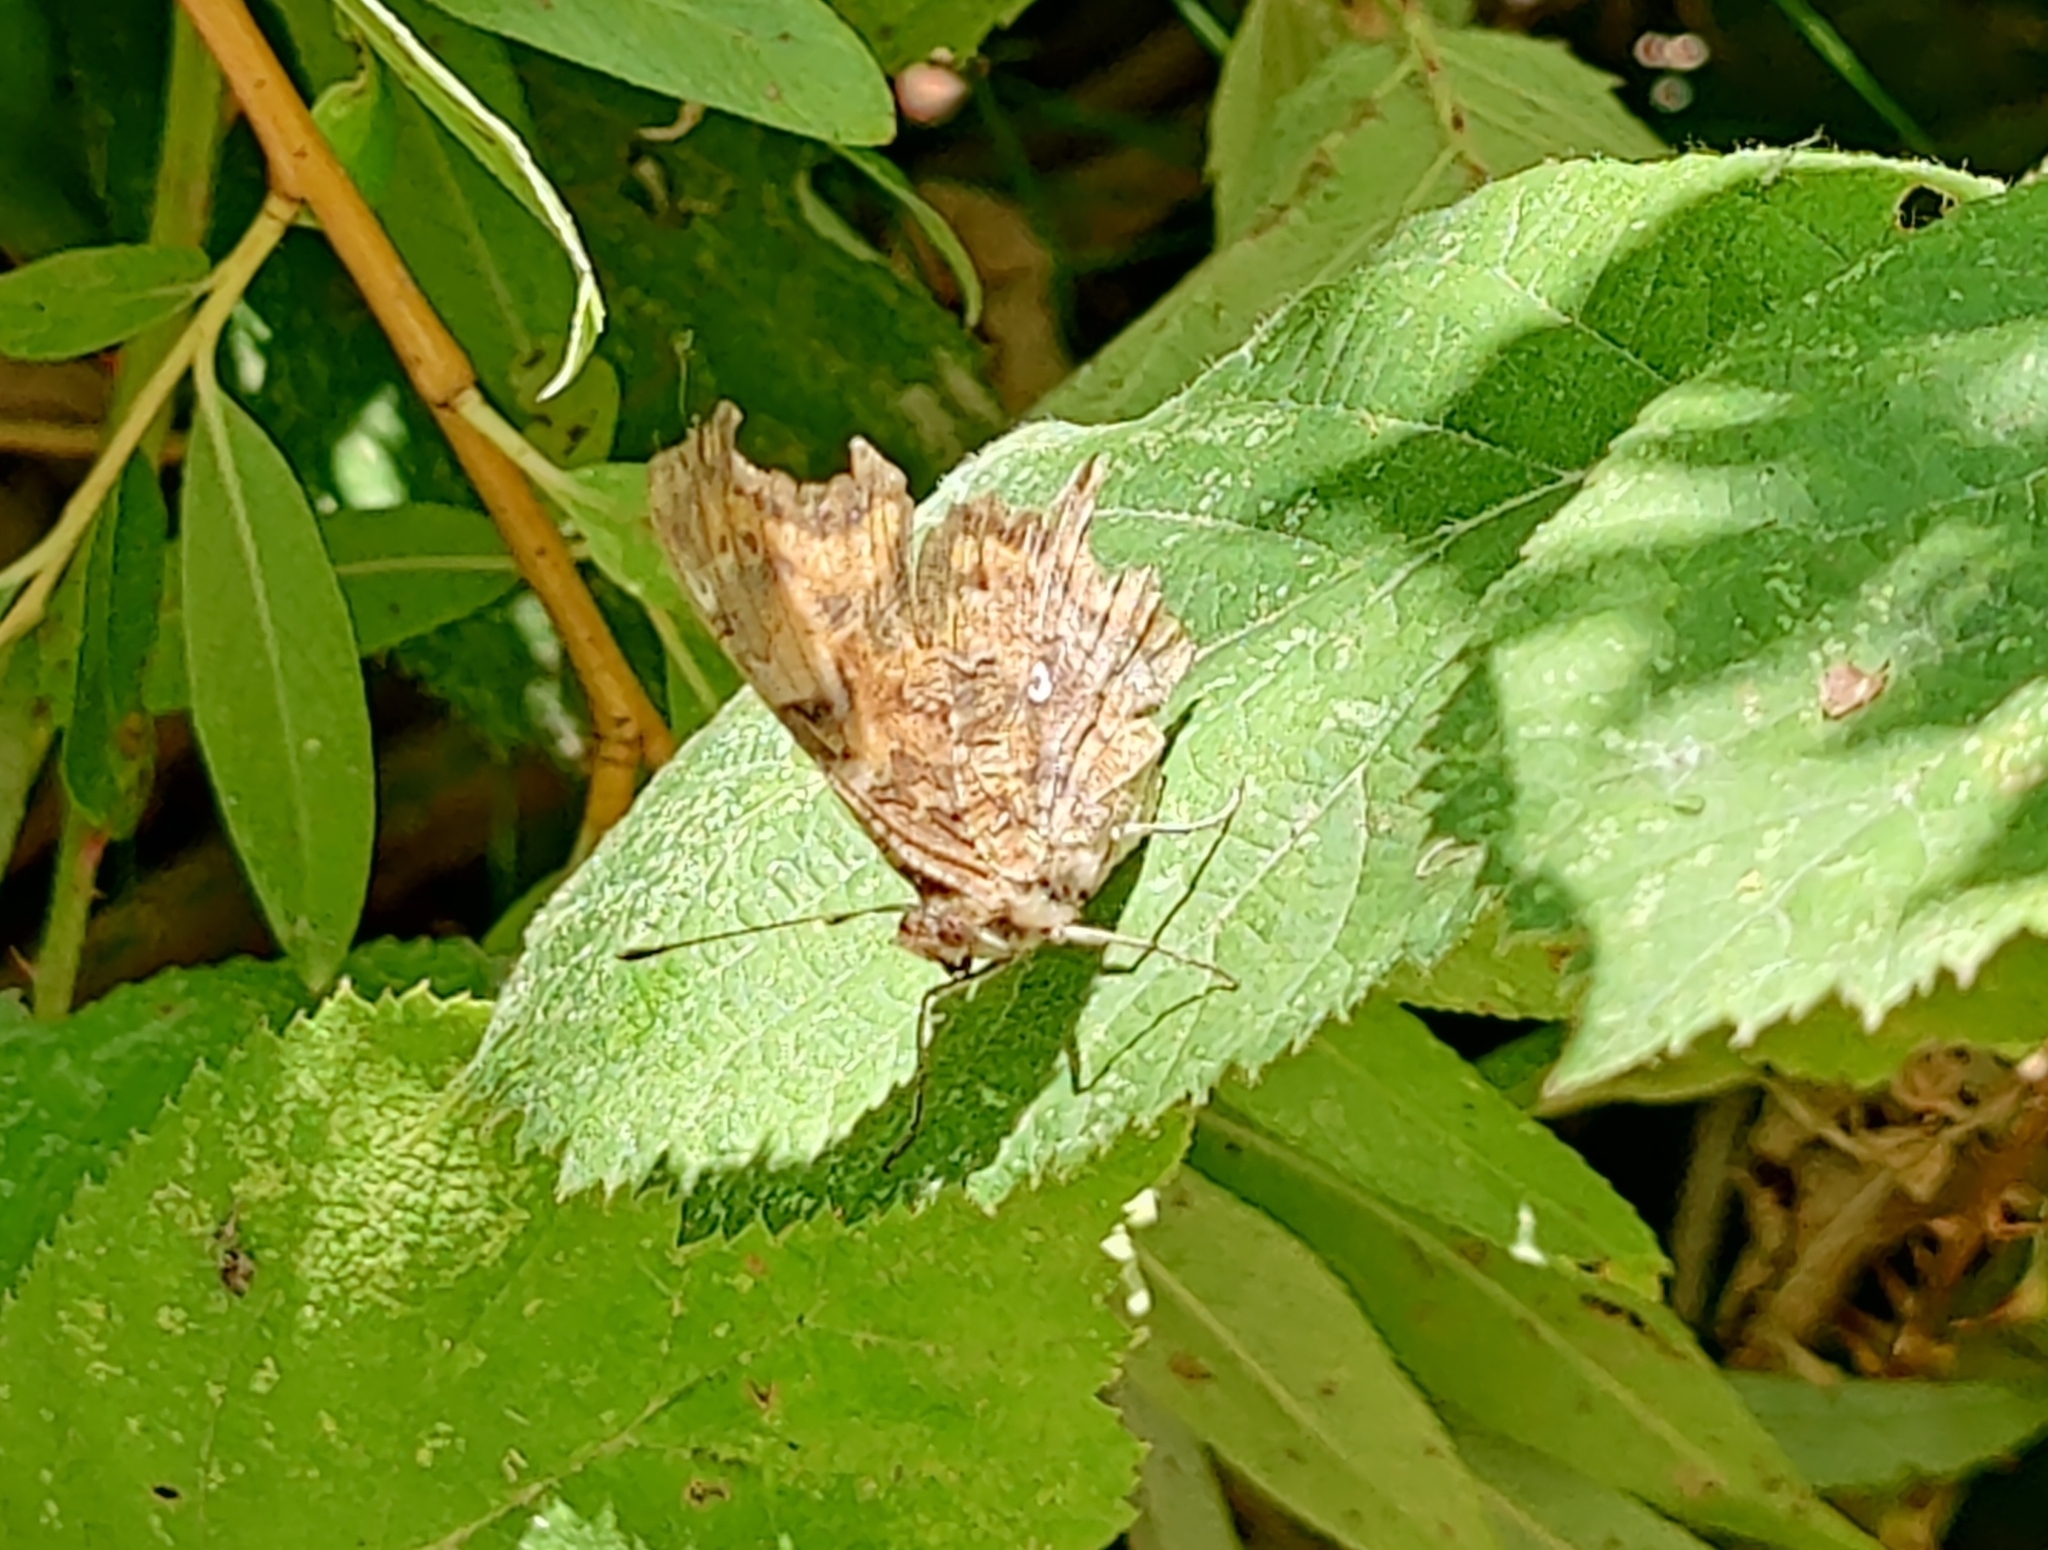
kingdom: Animalia
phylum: Arthropoda
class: Insecta
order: Lepidoptera
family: Nymphalidae
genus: Polygonia
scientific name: Polygonia c-album
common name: Comma
